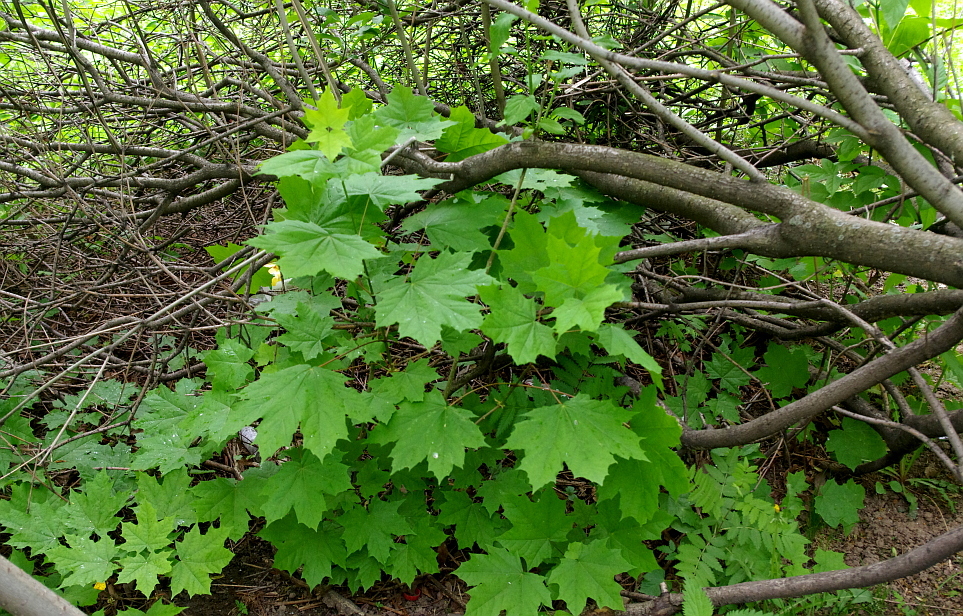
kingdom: Plantae
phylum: Tracheophyta
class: Magnoliopsida
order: Sapindales
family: Sapindaceae
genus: Acer
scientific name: Acer platanoides
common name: Norway maple
